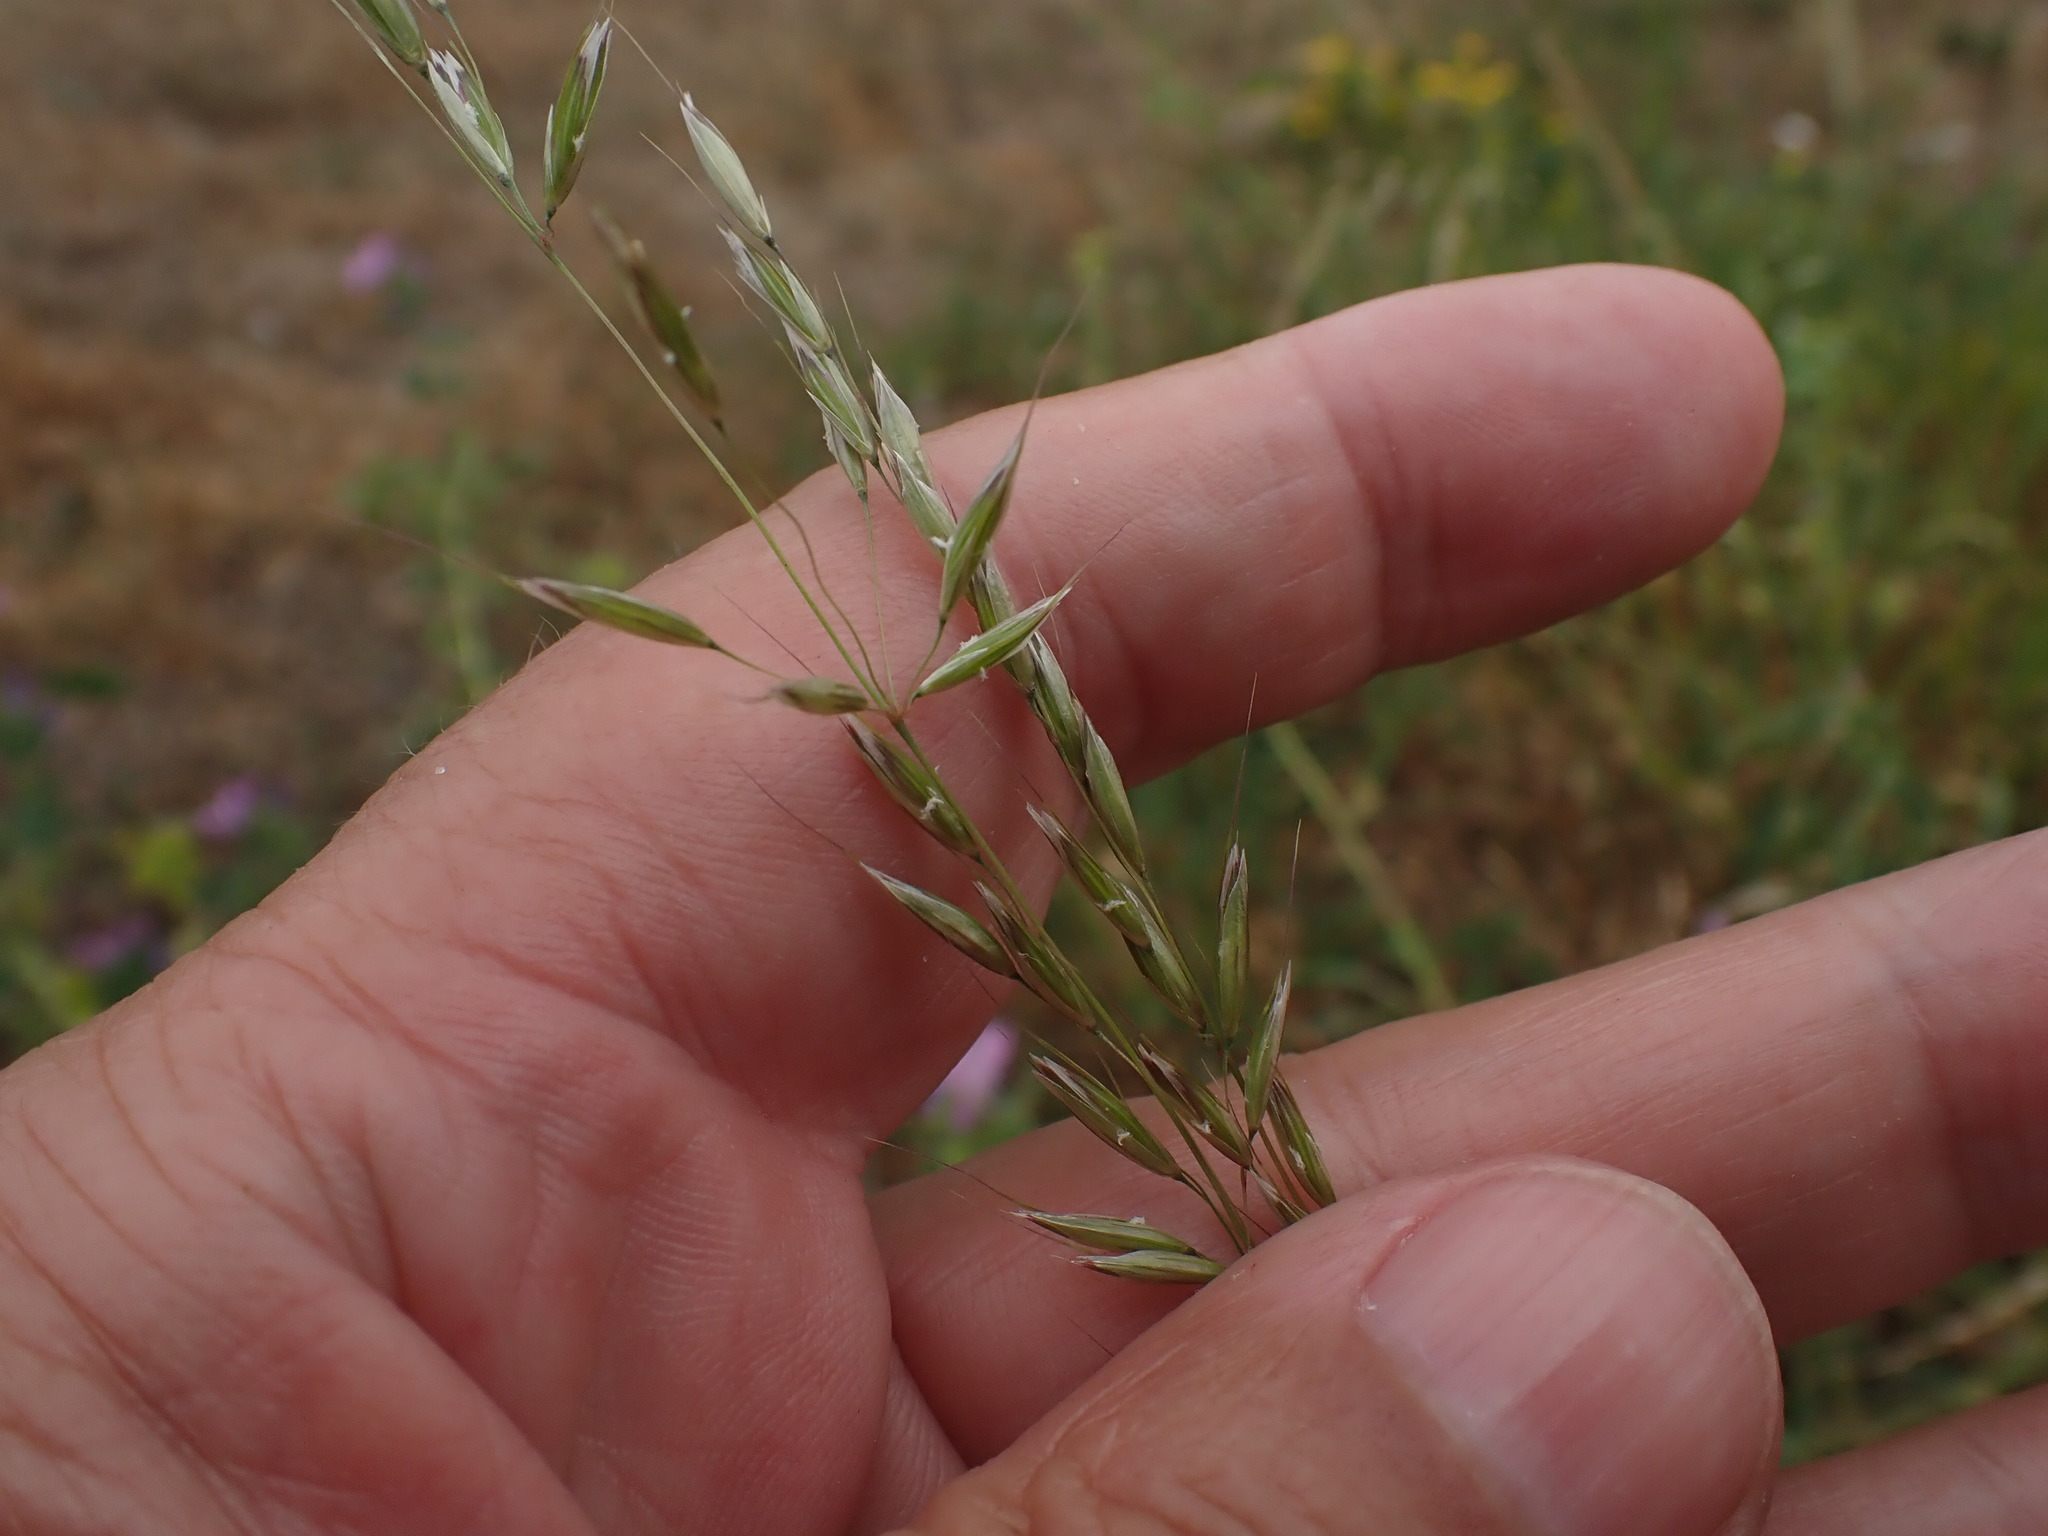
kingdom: Plantae
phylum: Tracheophyta
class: Liliopsida
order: Poales
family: Poaceae
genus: Arrhenatherum
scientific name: Arrhenatherum elatius
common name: Tall oatgrass
